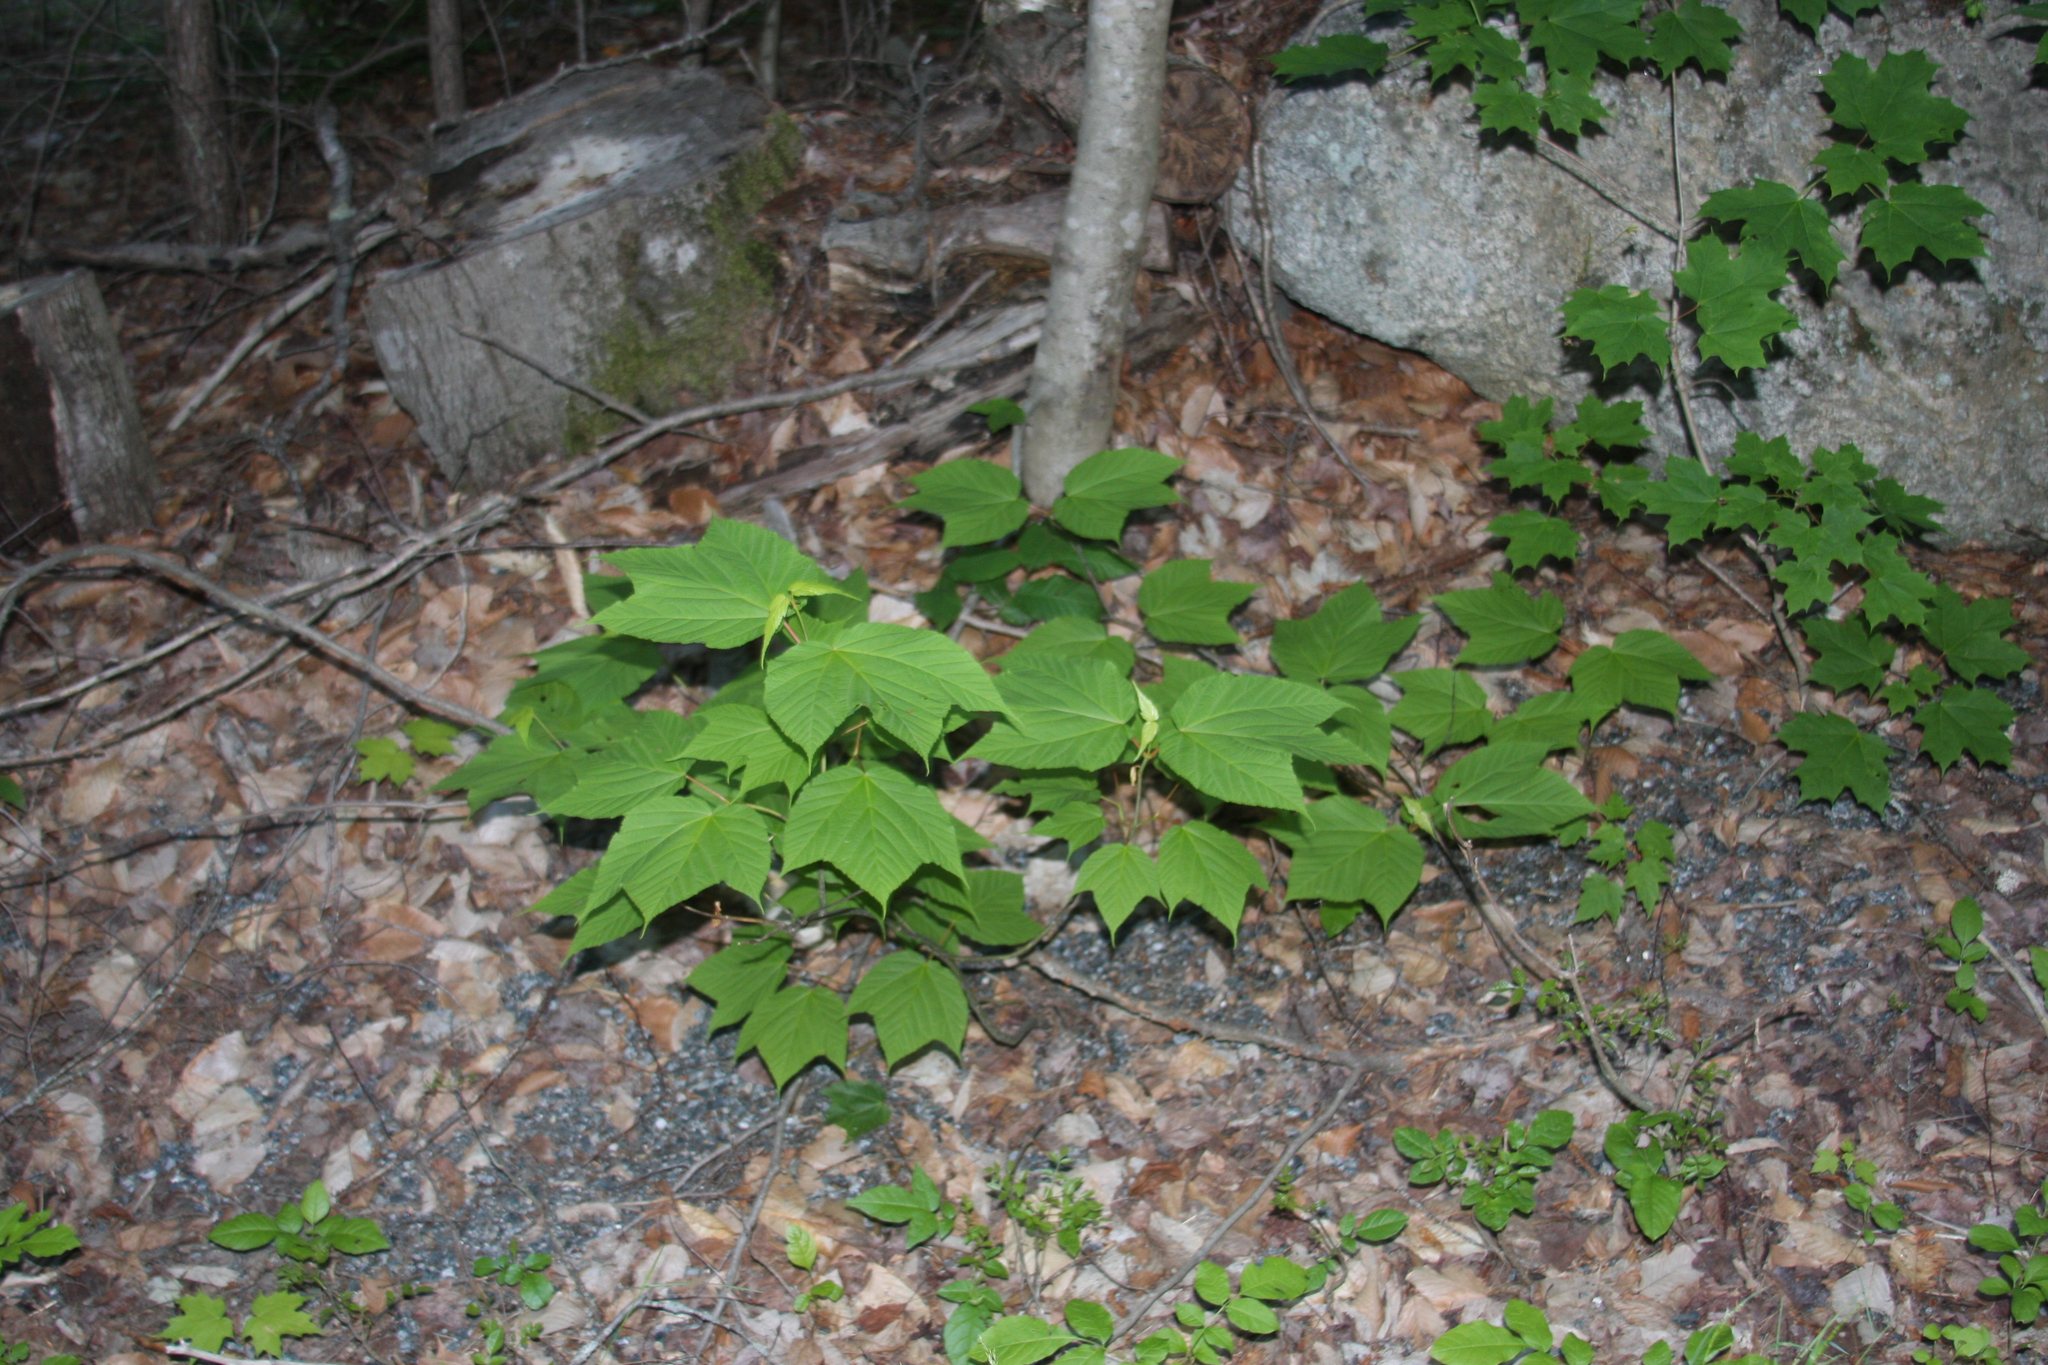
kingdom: Plantae
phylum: Tracheophyta
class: Magnoliopsida
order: Sapindales
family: Sapindaceae
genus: Acer
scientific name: Acer pensylvanicum
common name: Moosewood
